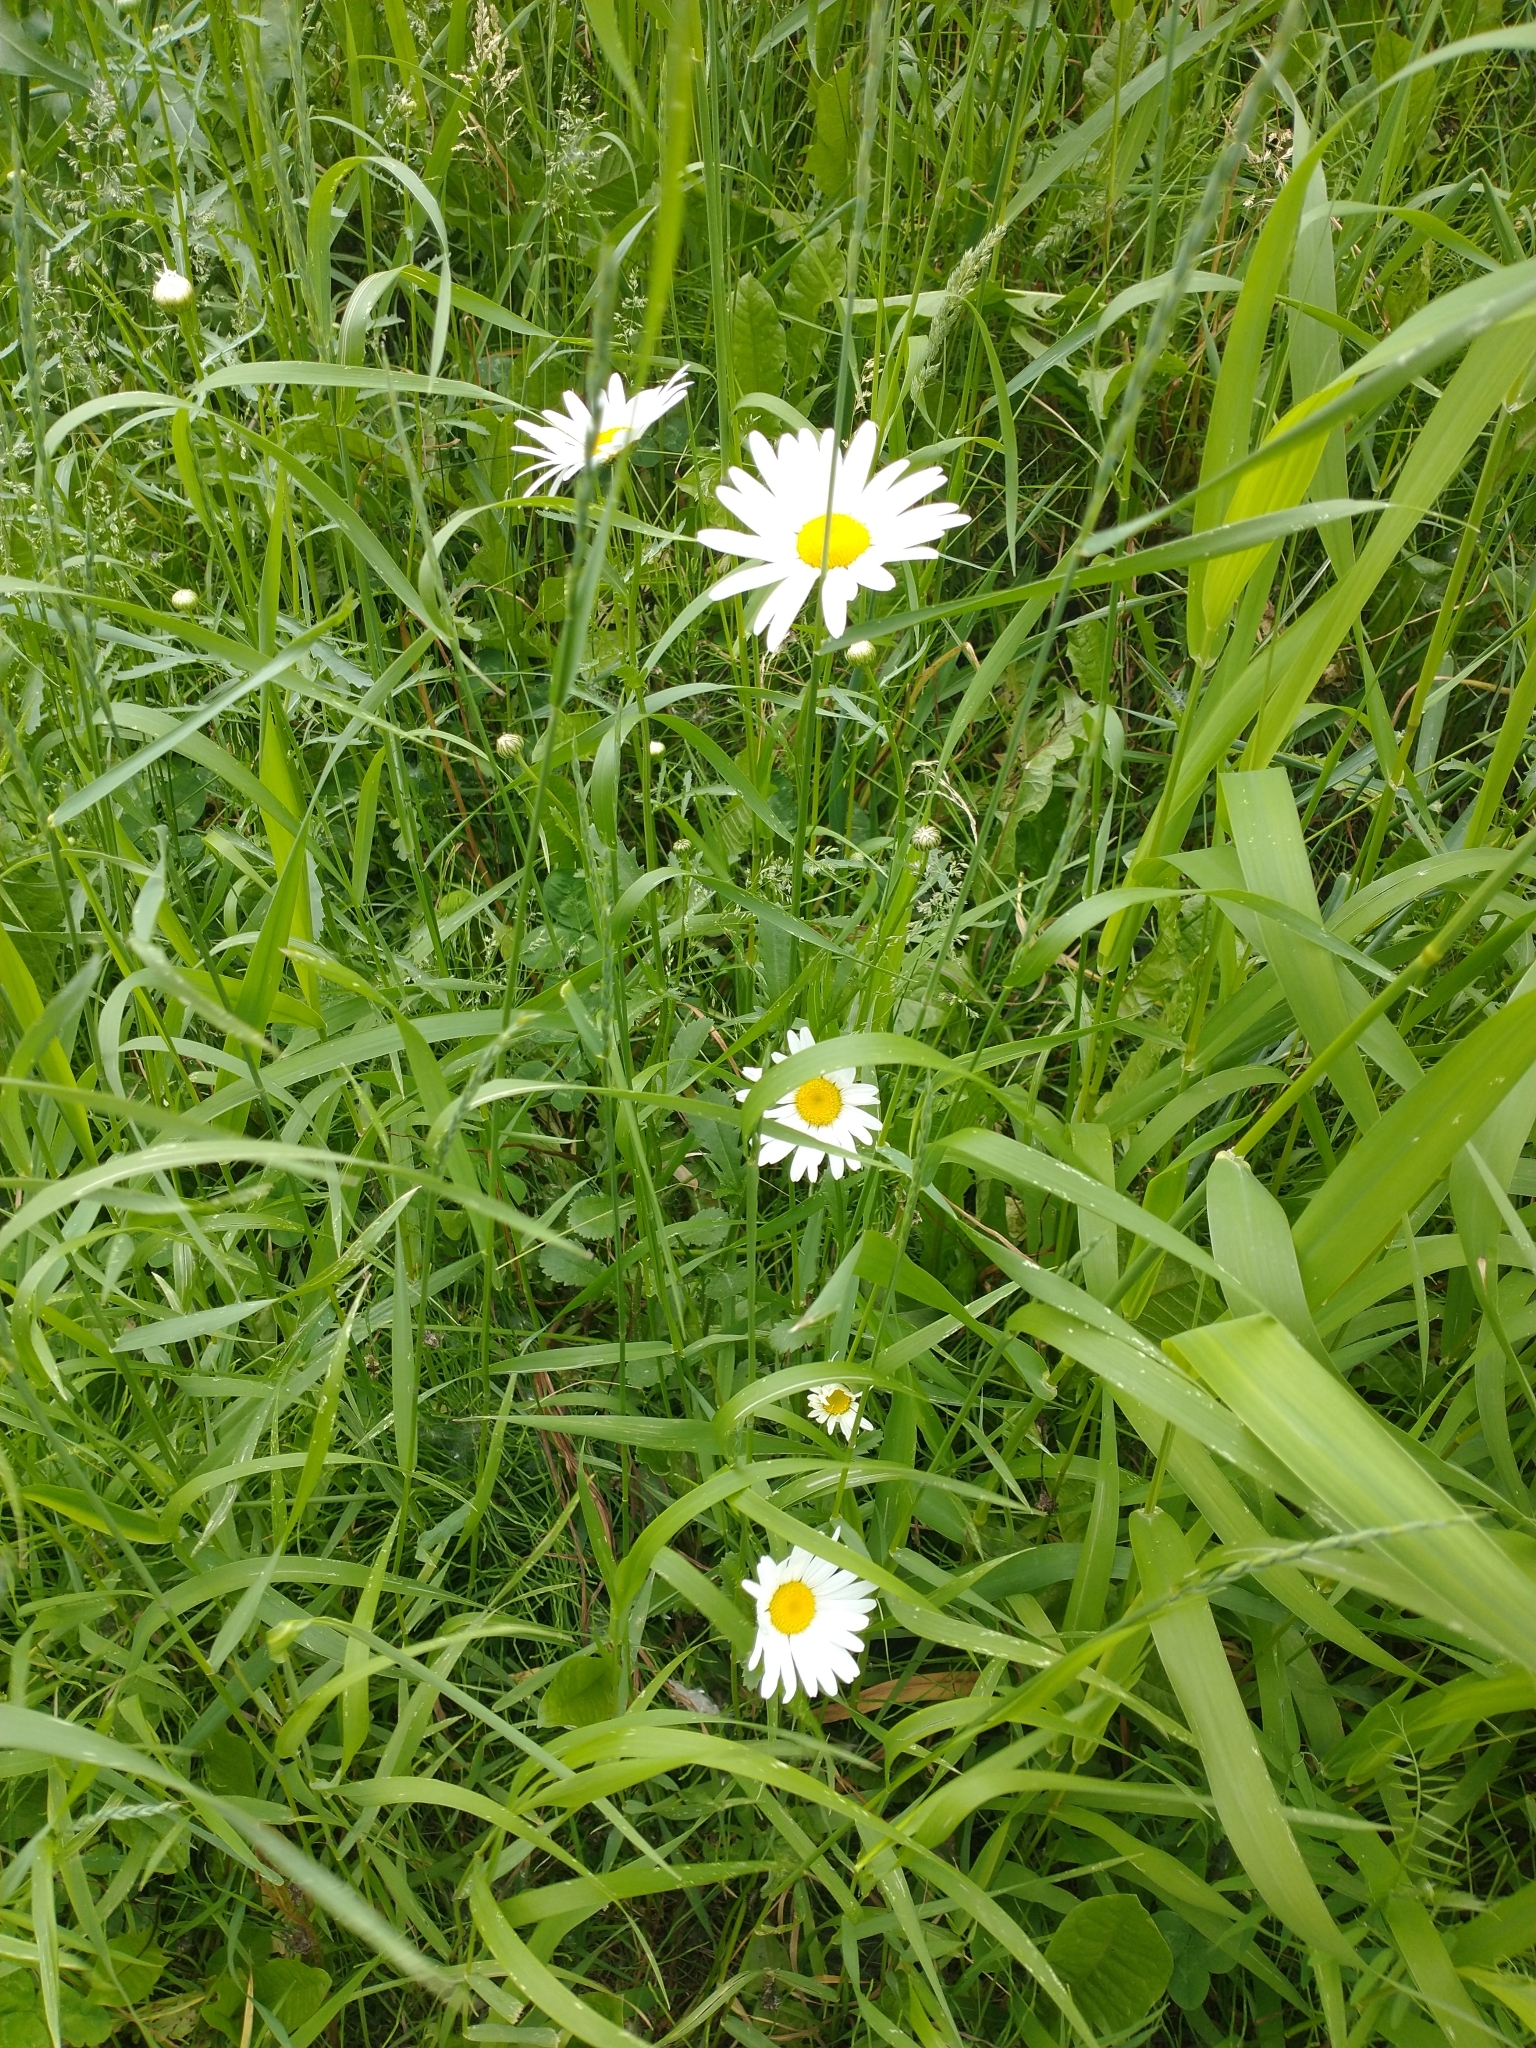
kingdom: Plantae
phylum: Tracheophyta
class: Magnoliopsida
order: Asterales
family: Asteraceae
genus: Leucanthemum
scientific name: Leucanthemum vulgare
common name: Oxeye daisy
